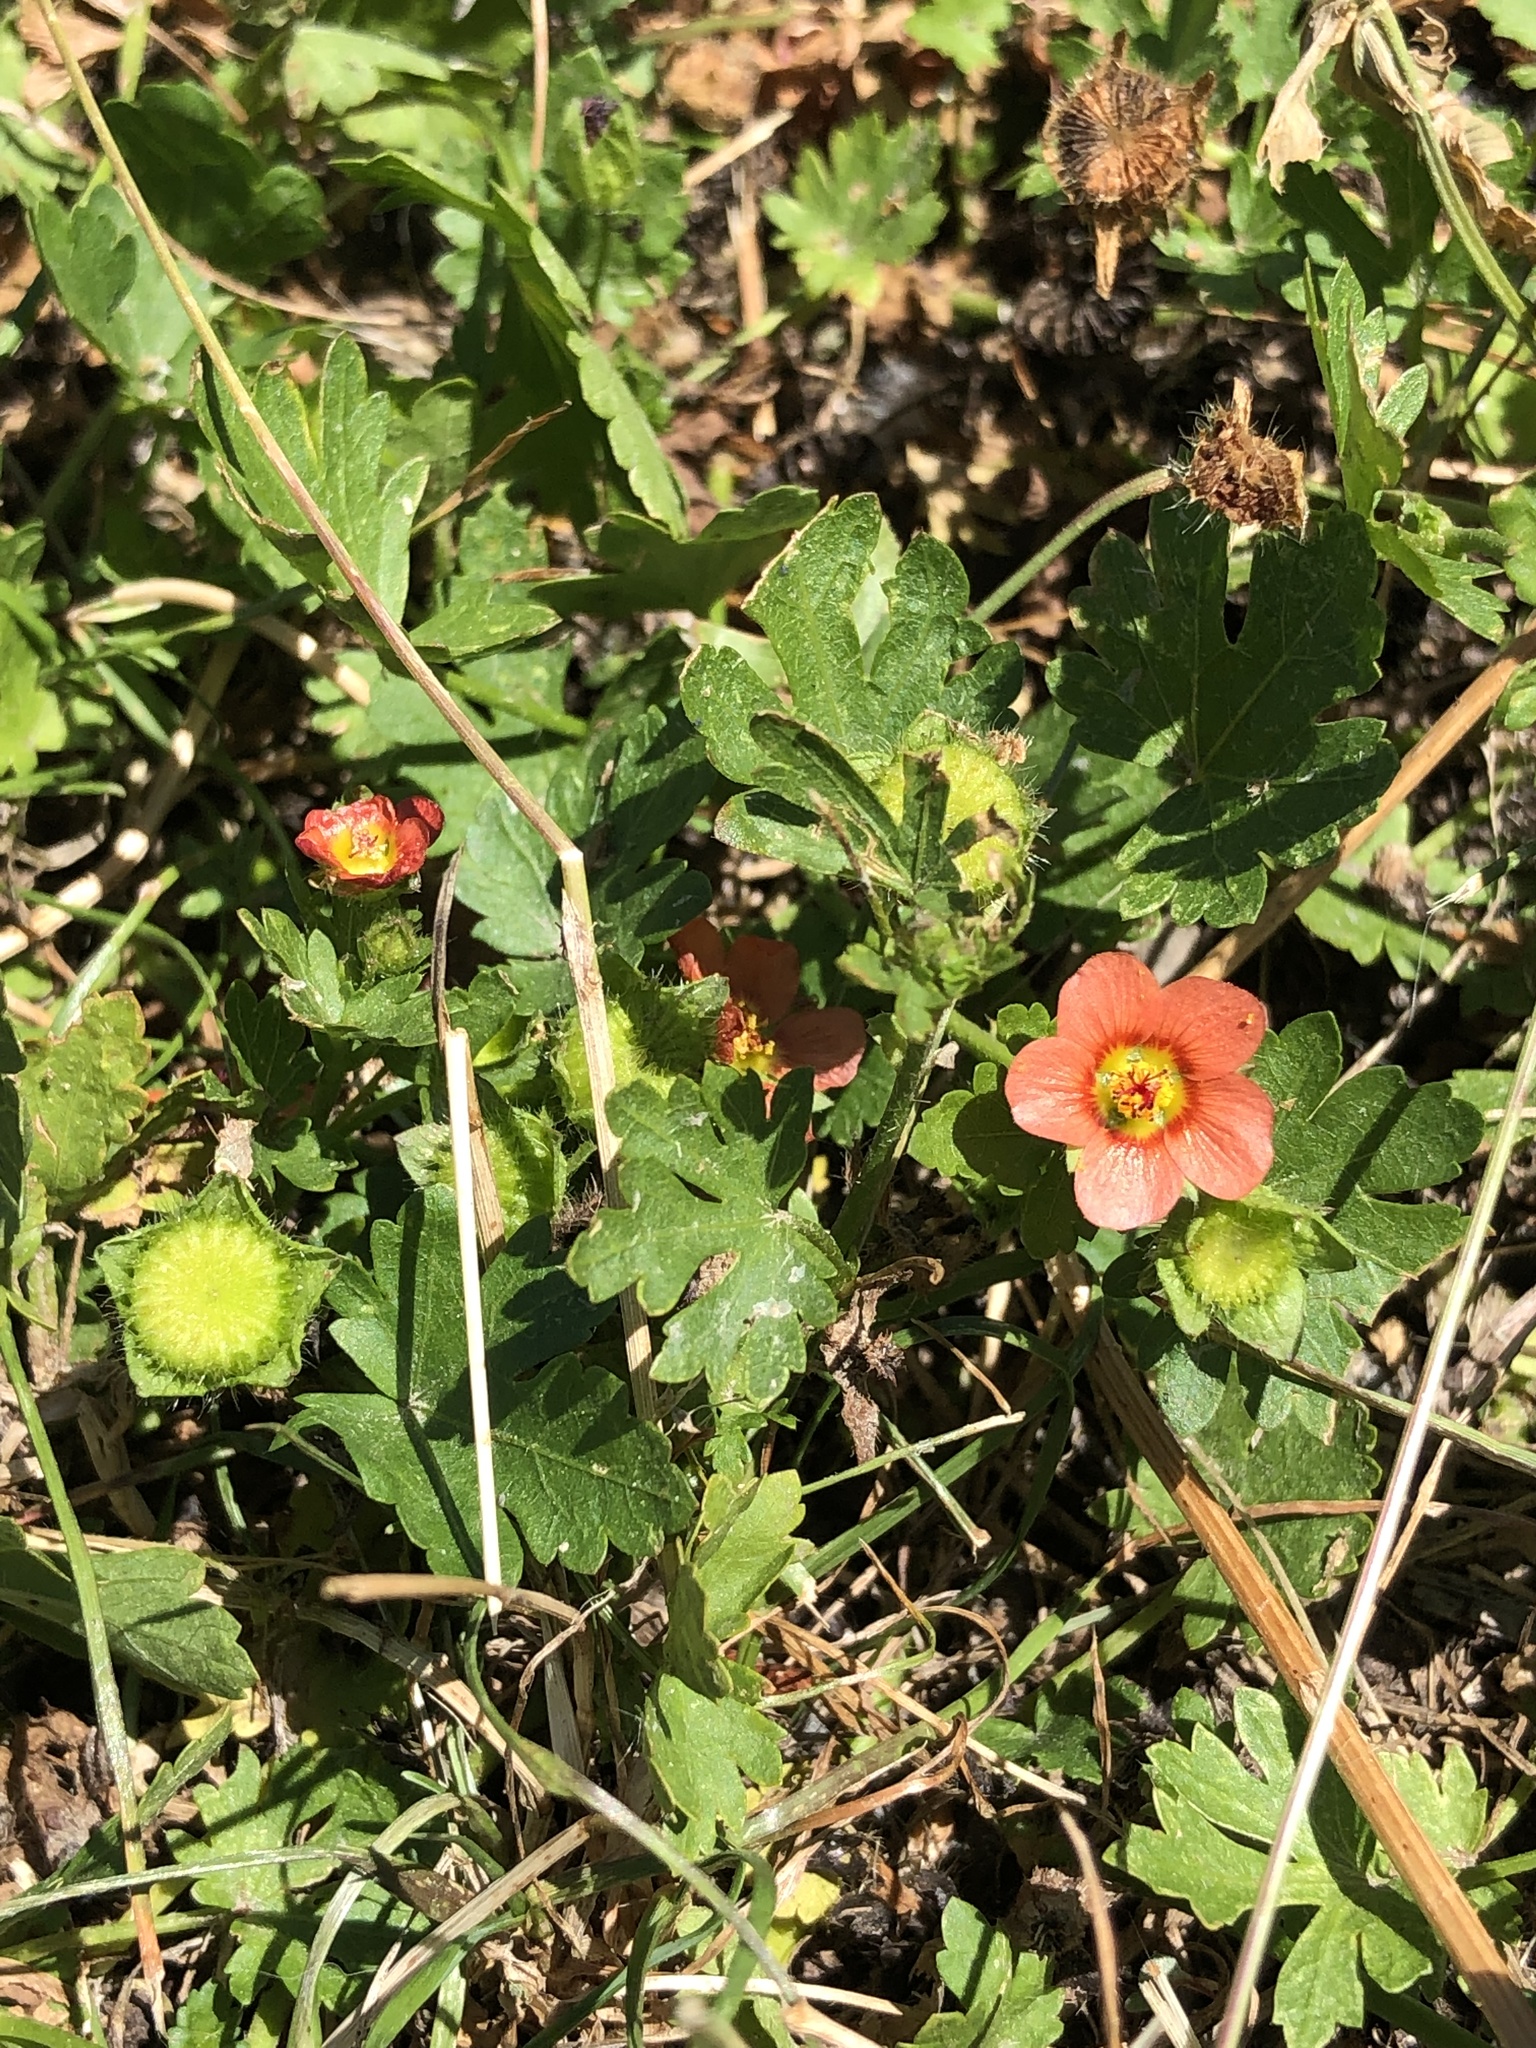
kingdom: Plantae
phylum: Tracheophyta
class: Magnoliopsida
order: Malvales
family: Malvaceae
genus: Modiola
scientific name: Modiola caroliniana
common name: Carolina bristlemallow
